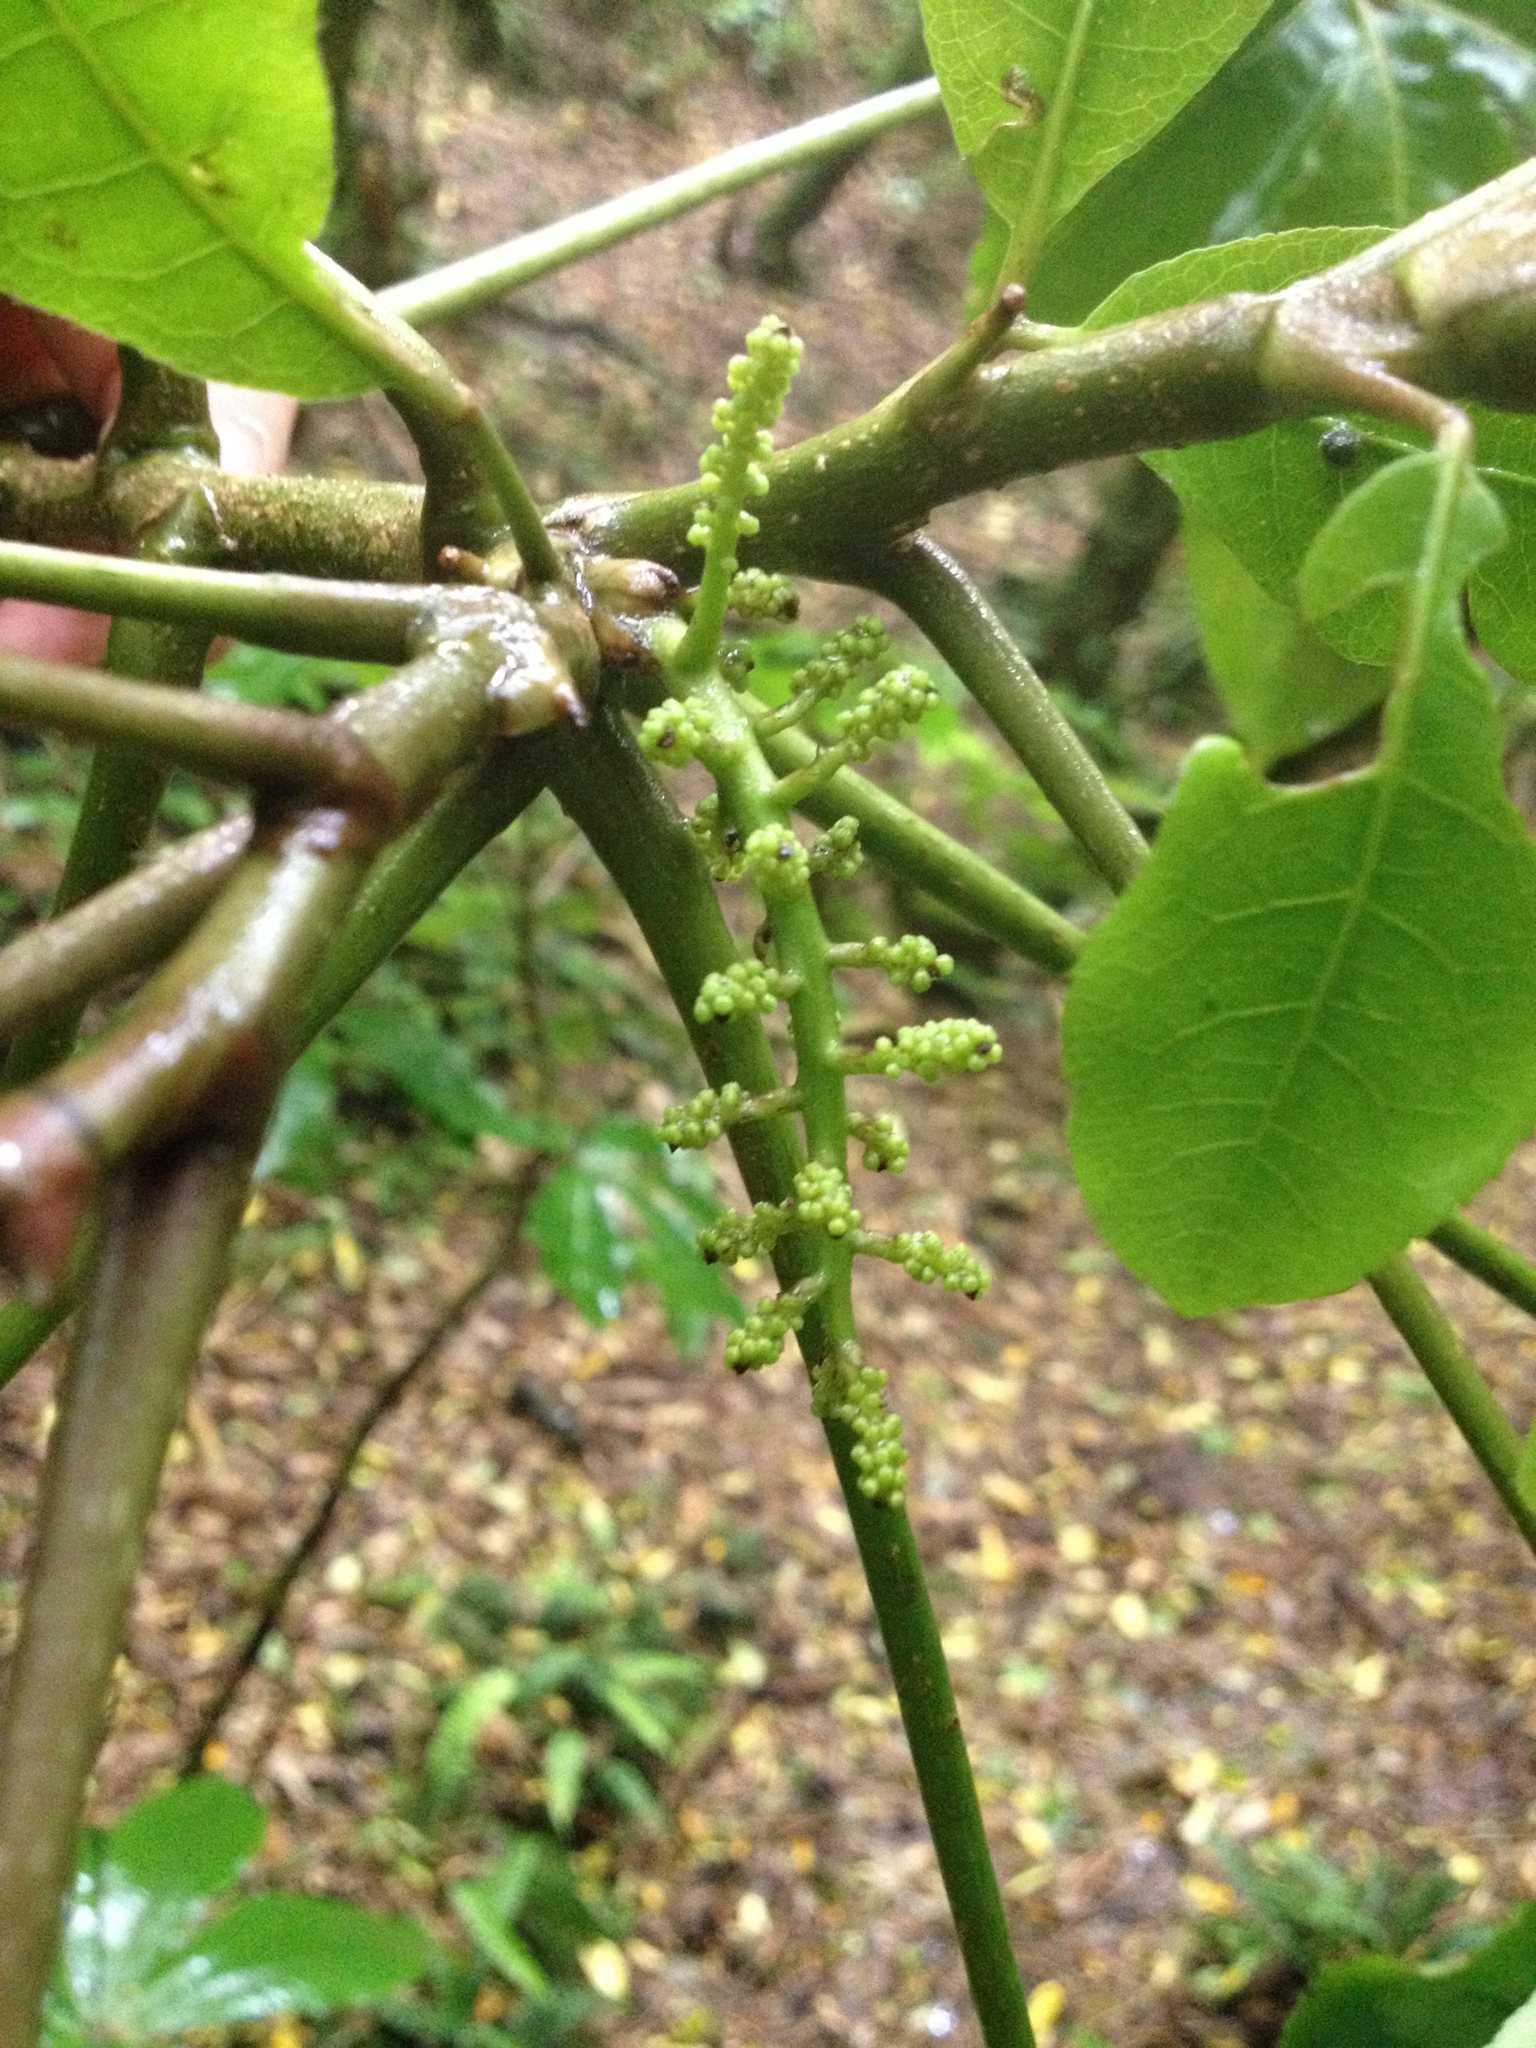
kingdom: Plantae
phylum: Tracheophyta
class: Magnoliopsida
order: Apiales
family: Araliaceae
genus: Schefflera
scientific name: Schefflera digitata
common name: Pate
